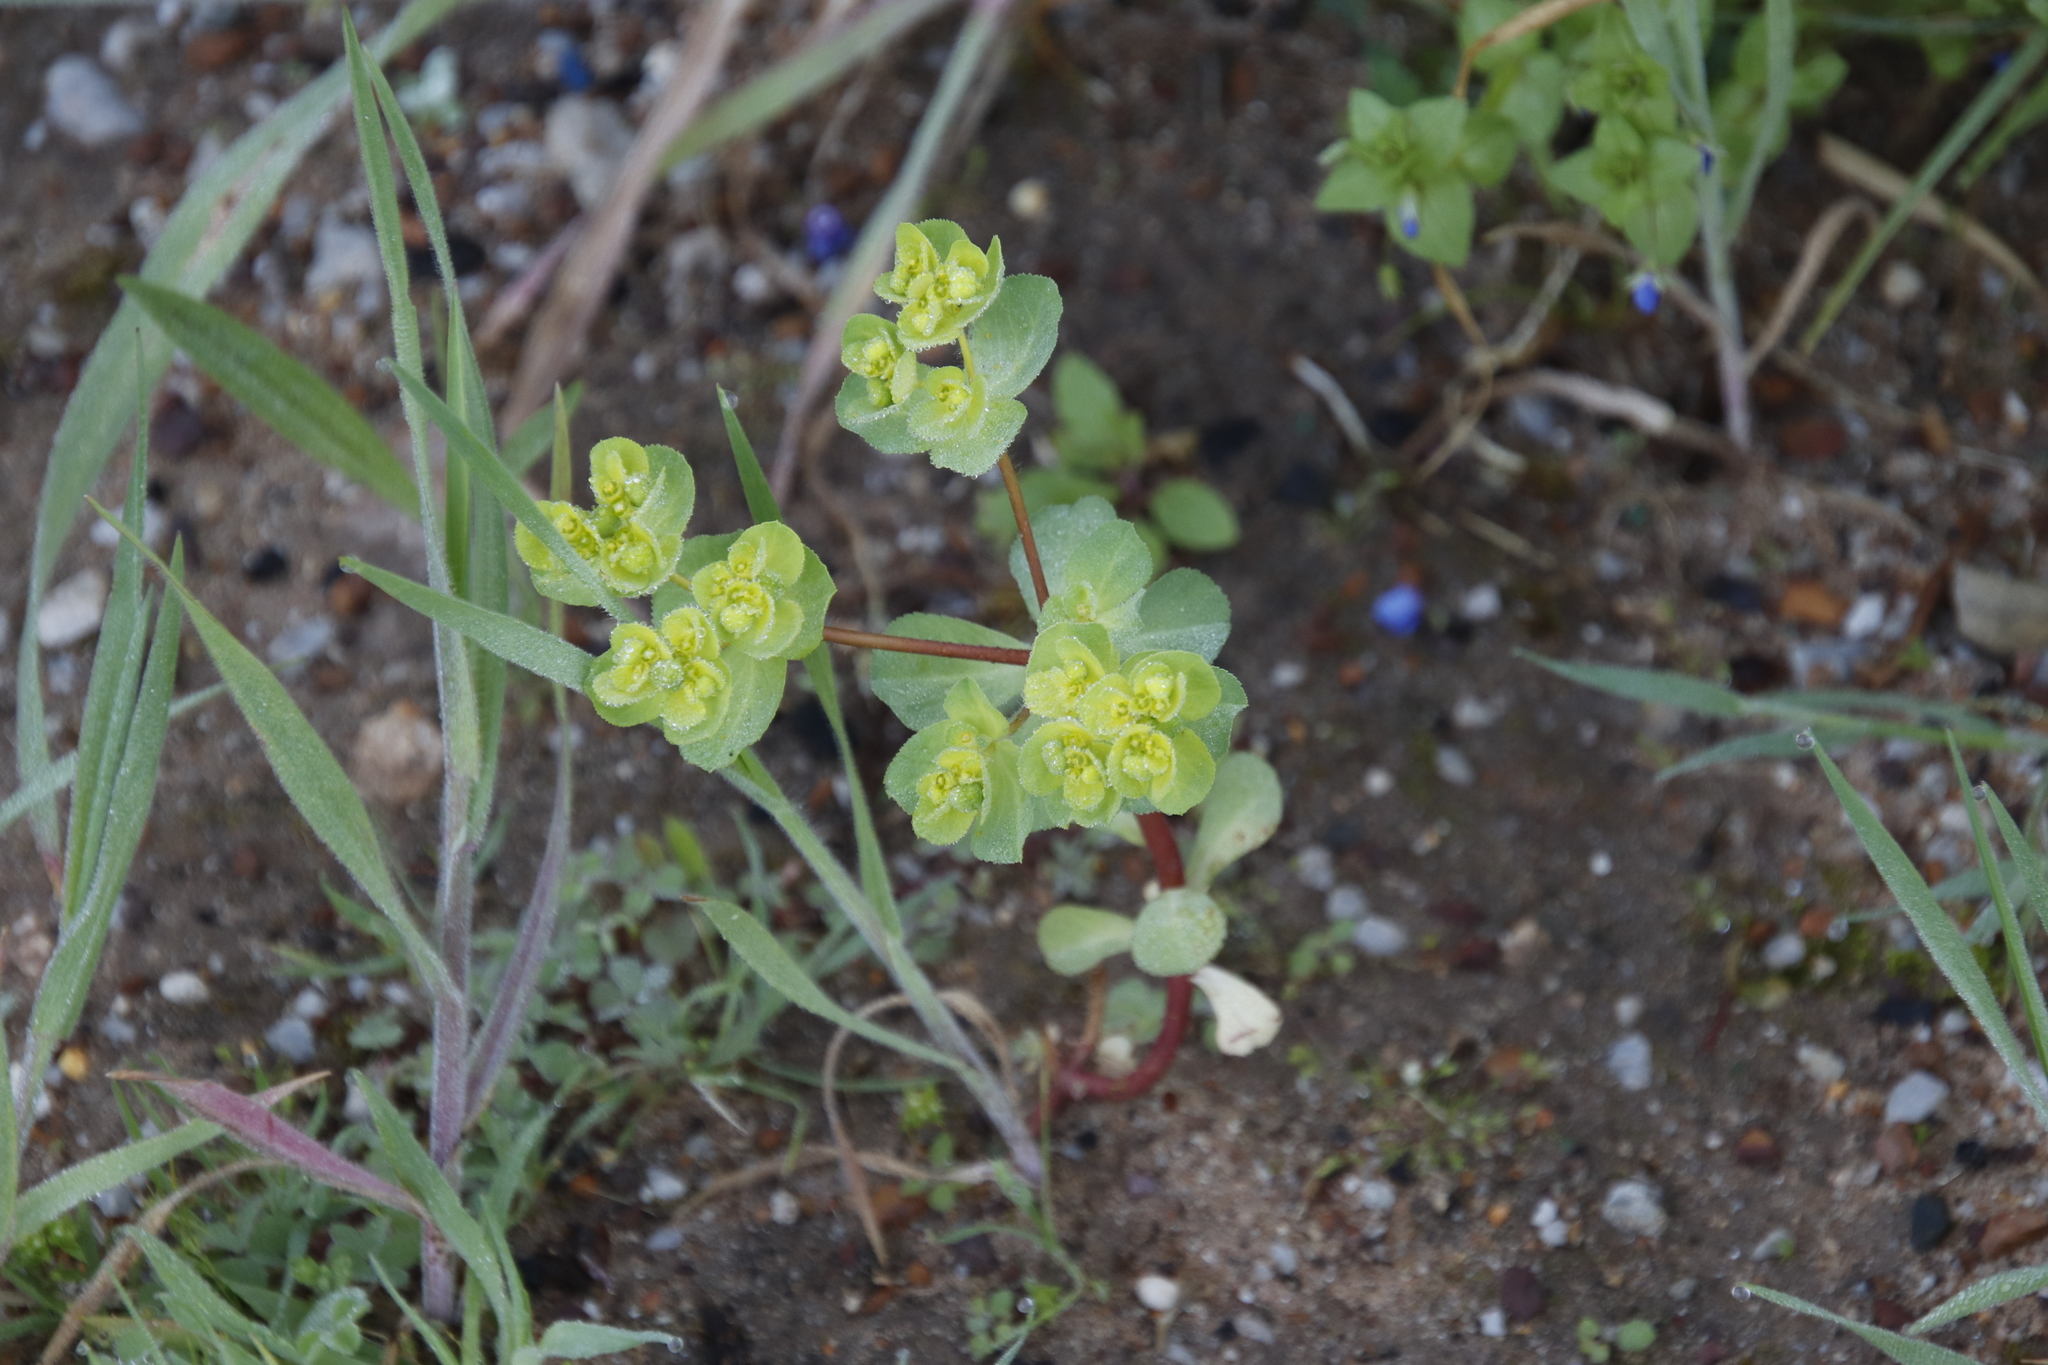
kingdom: Plantae
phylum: Tracheophyta
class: Magnoliopsida
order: Malpighiales
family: Euphorbiaceae
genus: Euphorbia
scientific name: Euphorbia helioscopia
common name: Sun spurge
